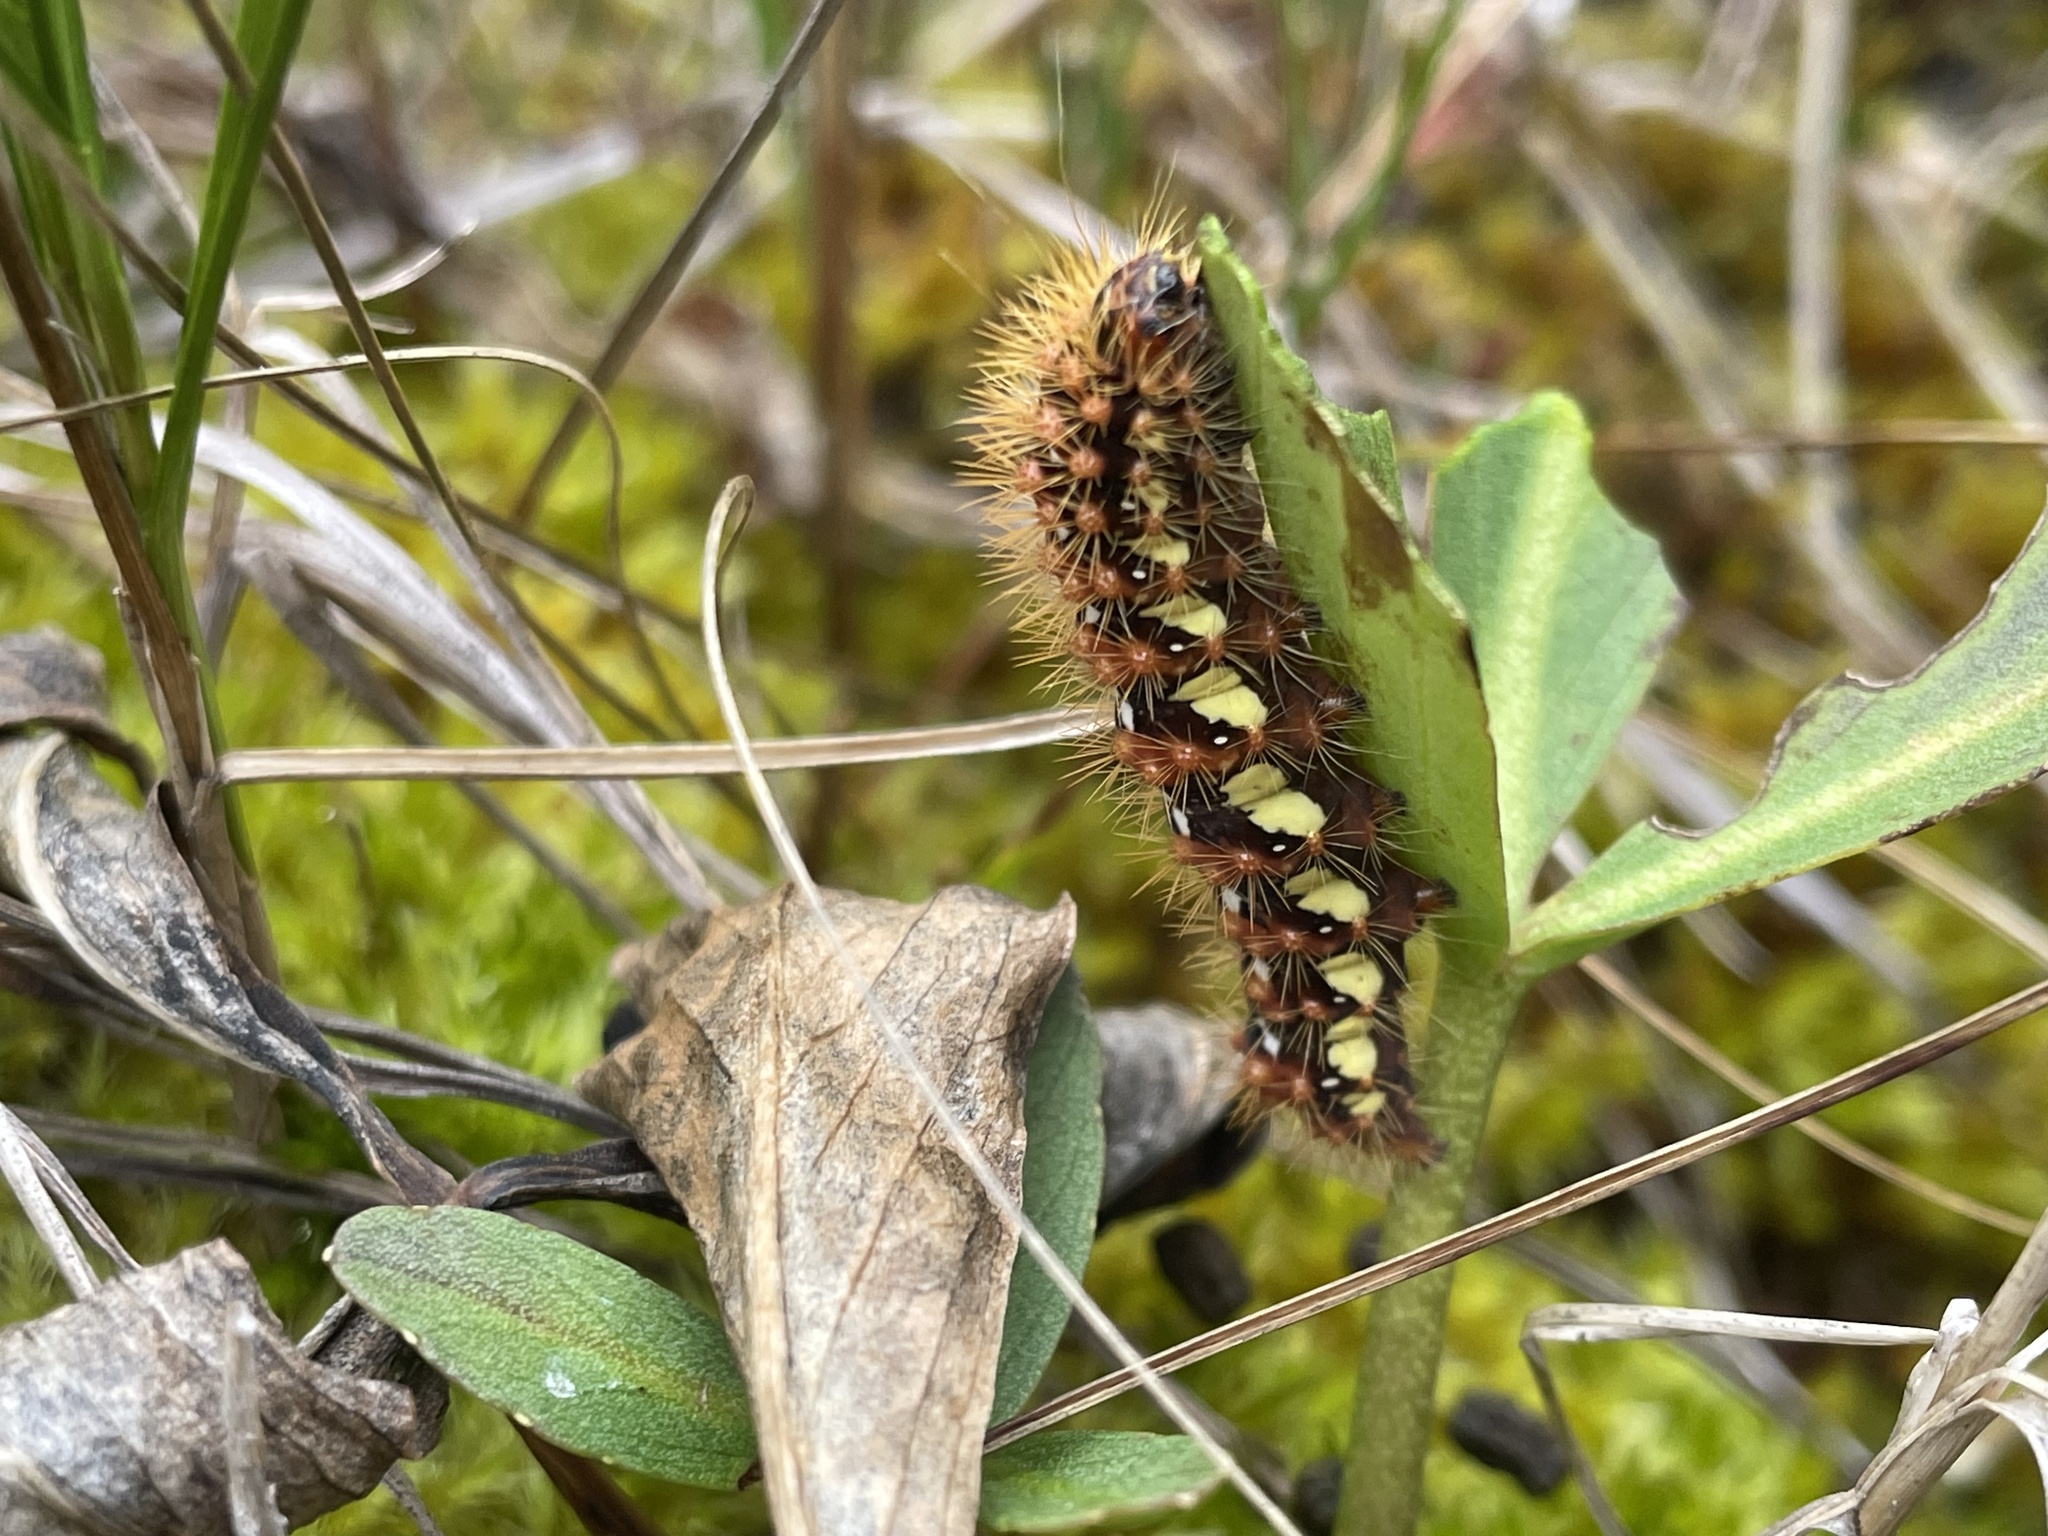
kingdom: Animalia
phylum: Arthropoda
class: Insecta
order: Lepidoptera
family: Noctuidae
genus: Acronicta
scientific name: Acronicta oblinita
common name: Smeared dagger
